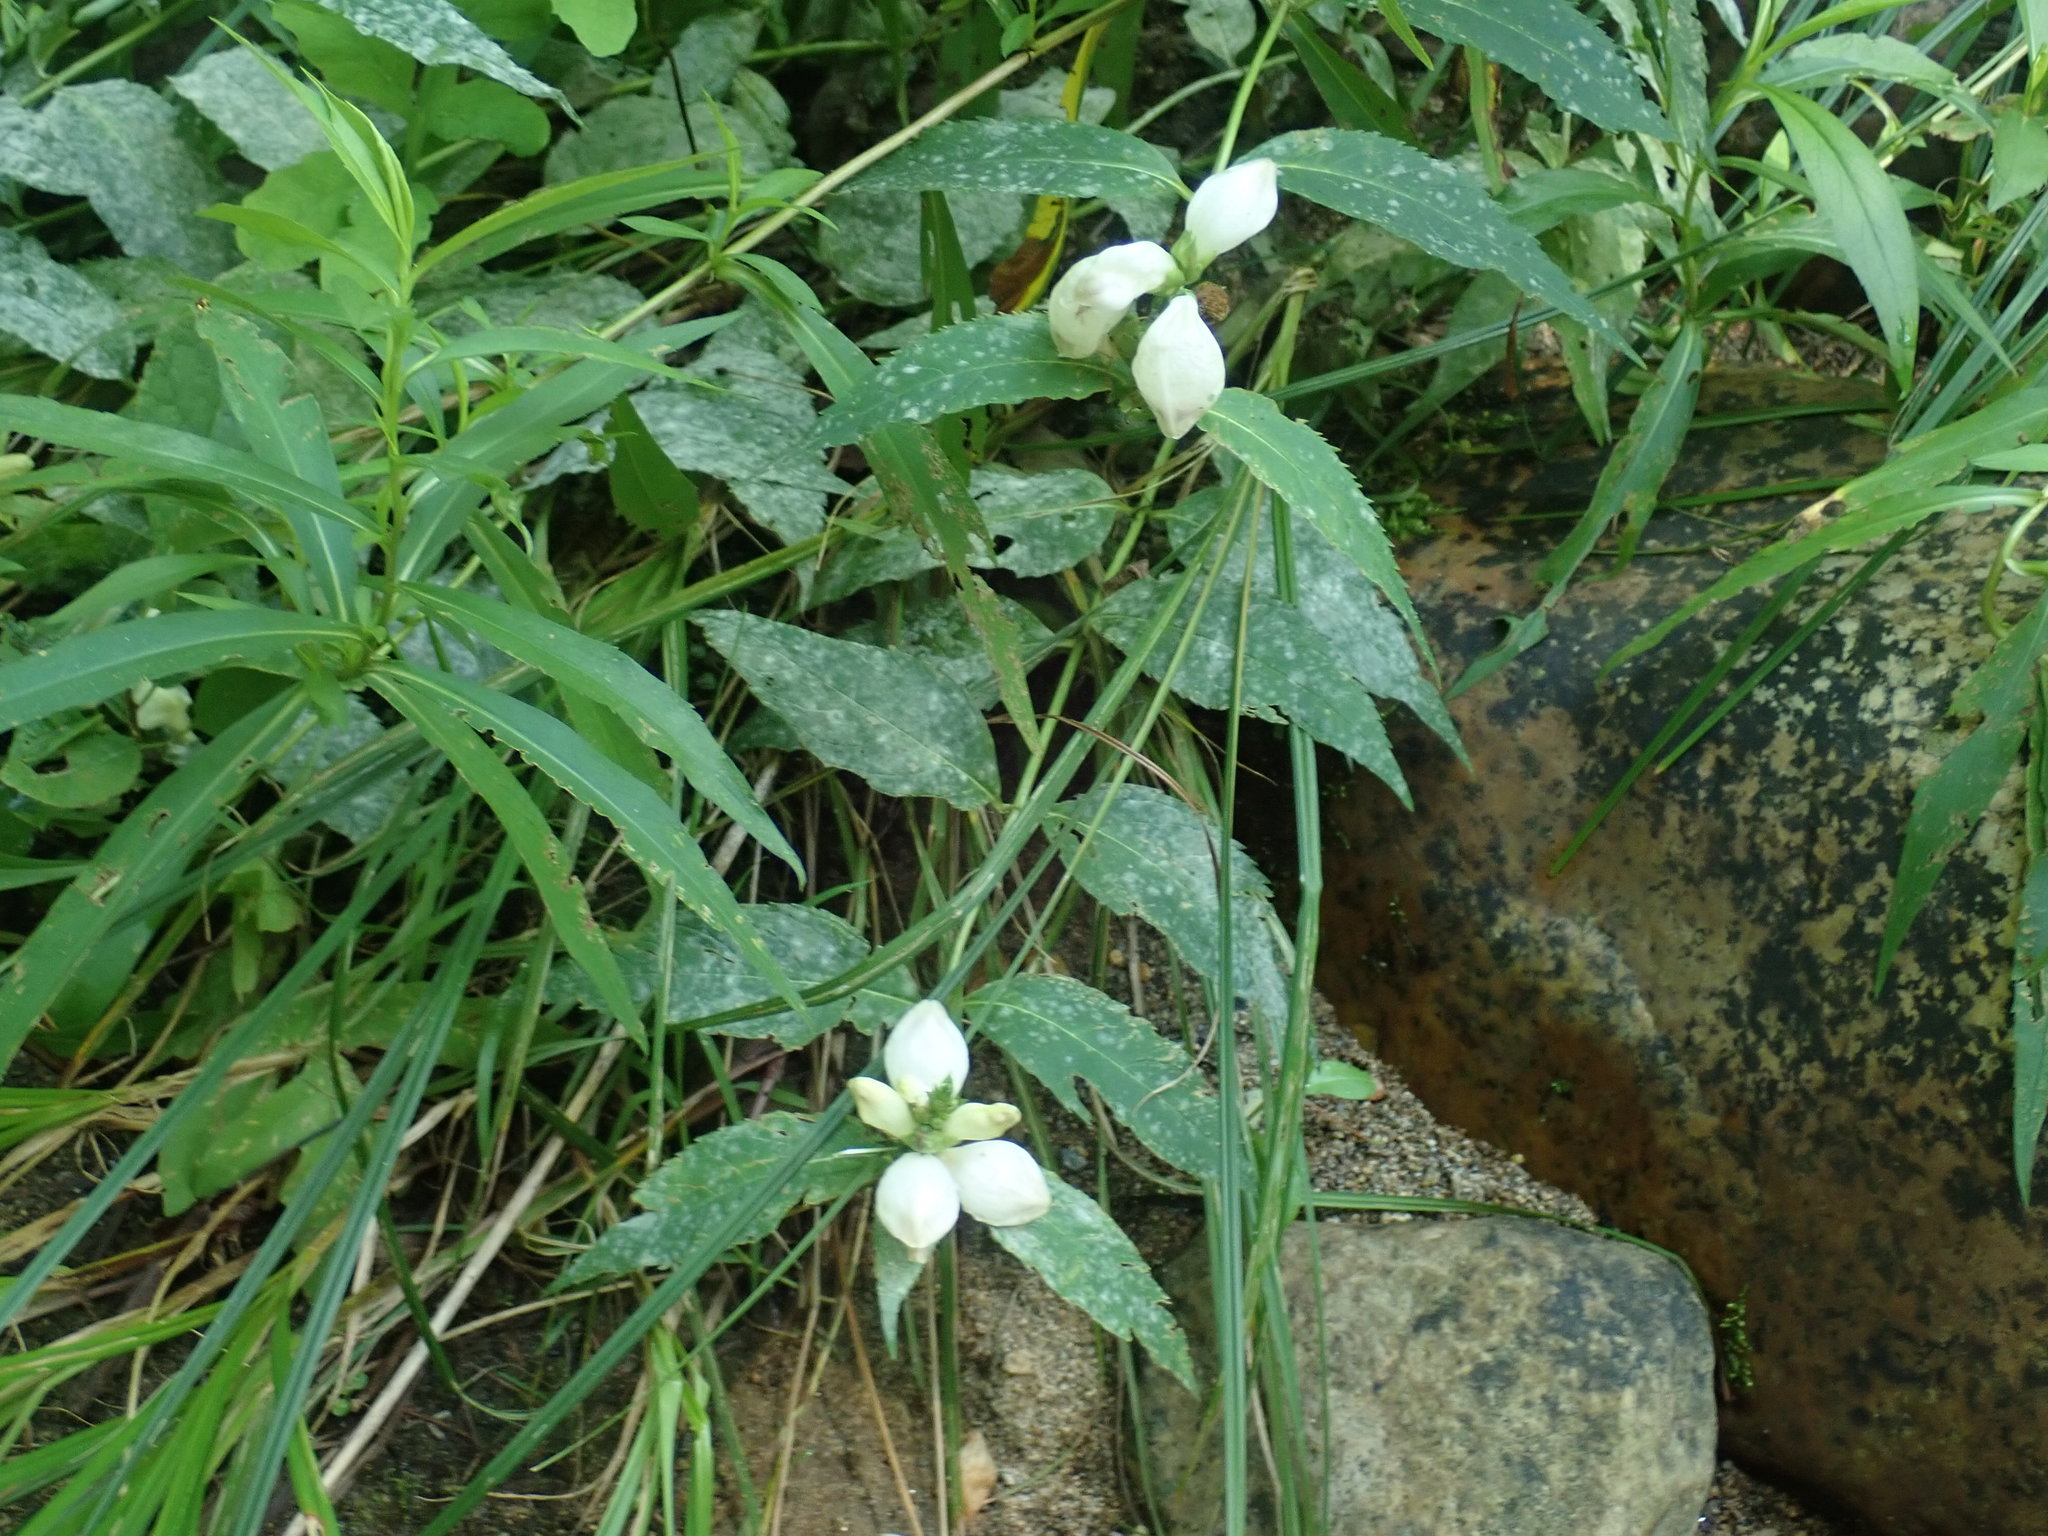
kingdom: Plantae
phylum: Tracheophyta
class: Magnoliopsida
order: Lamiales
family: Plantaginaceae
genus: Chelone
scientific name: Chelone glabra
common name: Snakehead
